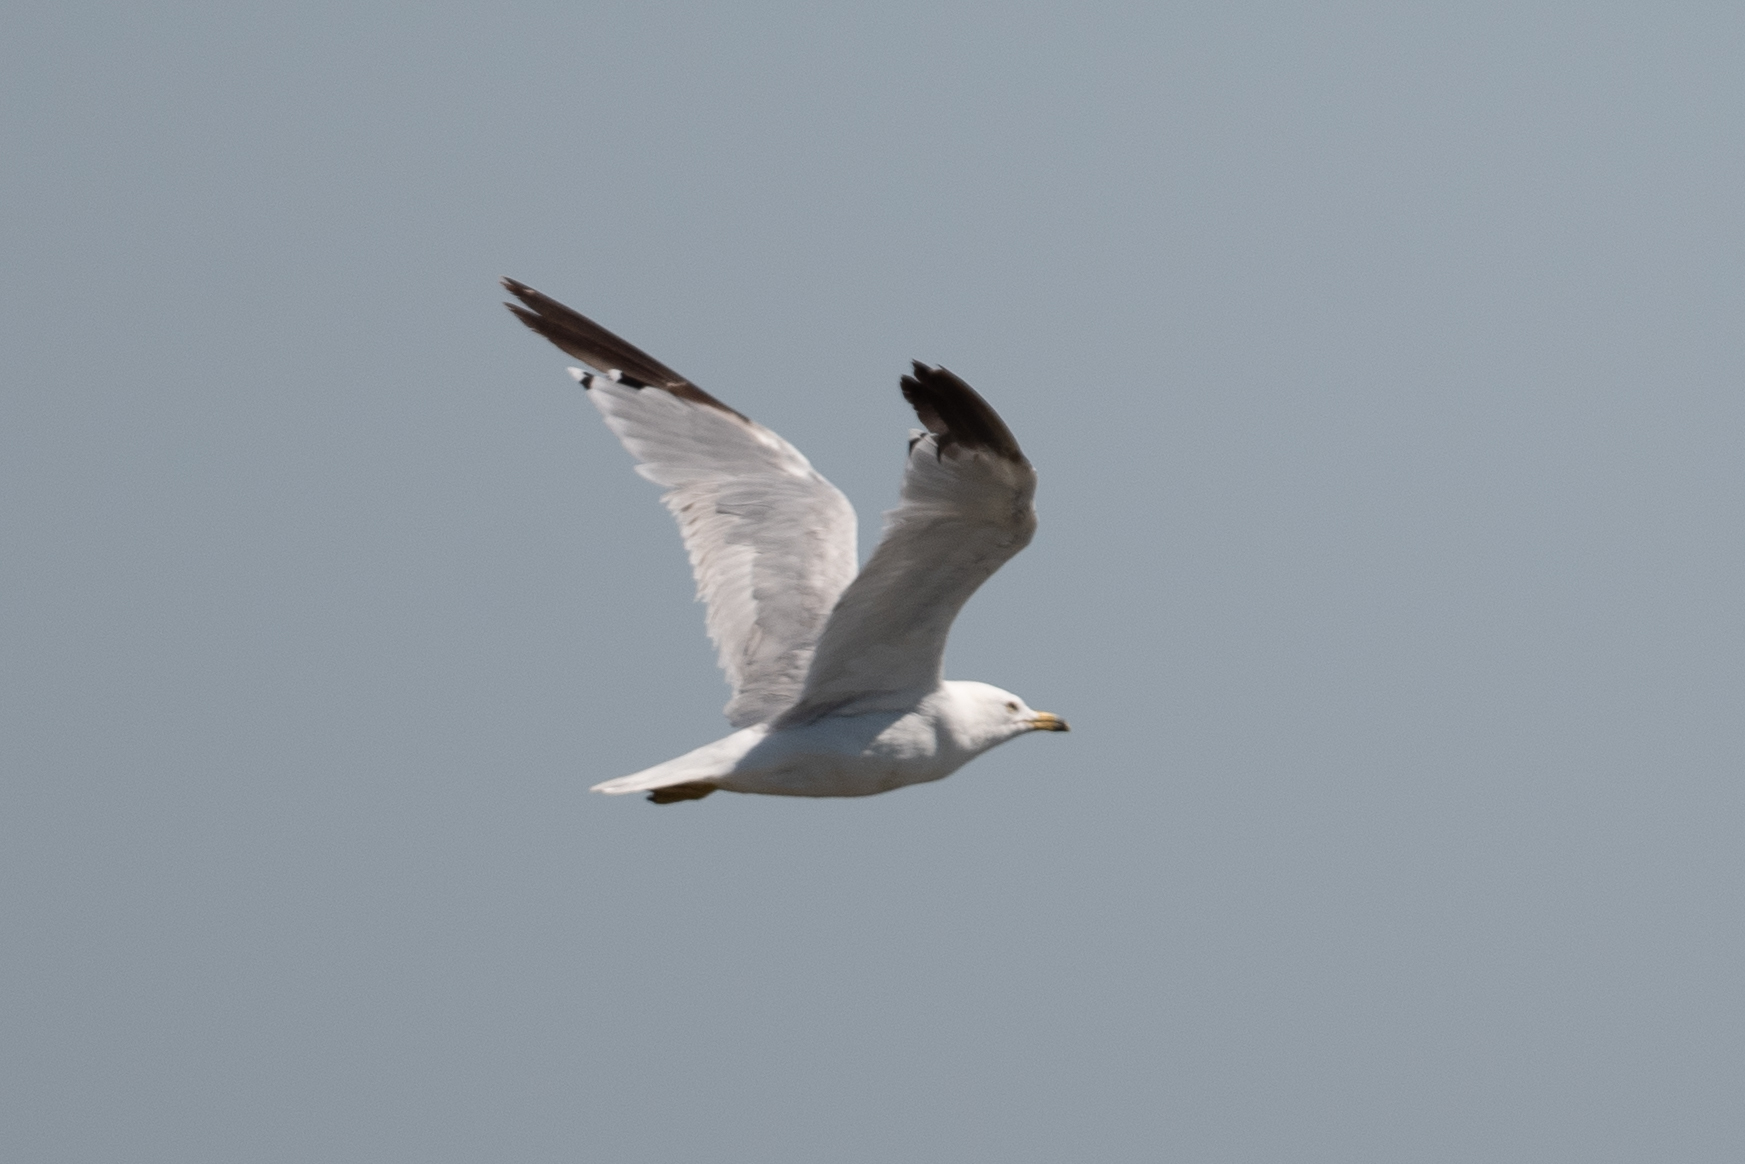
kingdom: Animalia
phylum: Chordata
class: Aves
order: Charadriiformes
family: Laridae
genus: Larus
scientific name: Larus delawarensis
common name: Ring-billed gull
